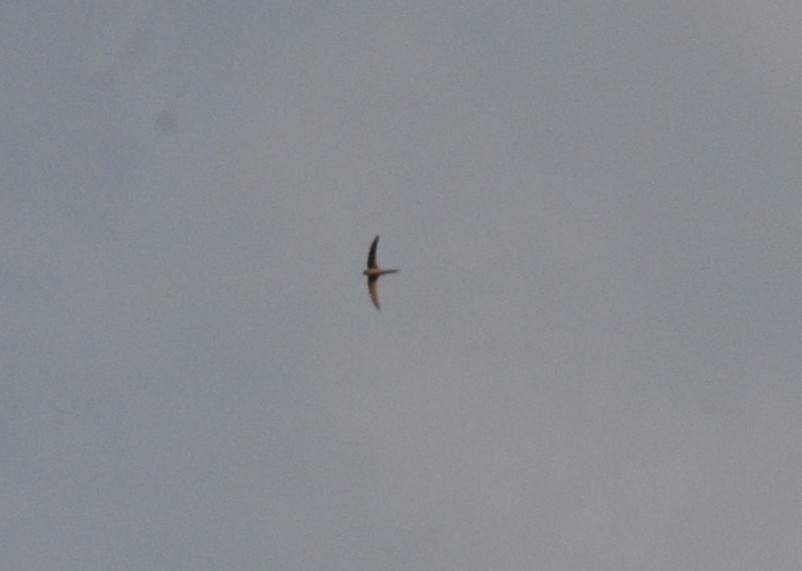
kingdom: Animalia
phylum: Chordata
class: Aves
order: Apodiformes
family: Apodidae
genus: Cypsiurus
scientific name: Cypsiurus balasiensis
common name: Asian palm swift
